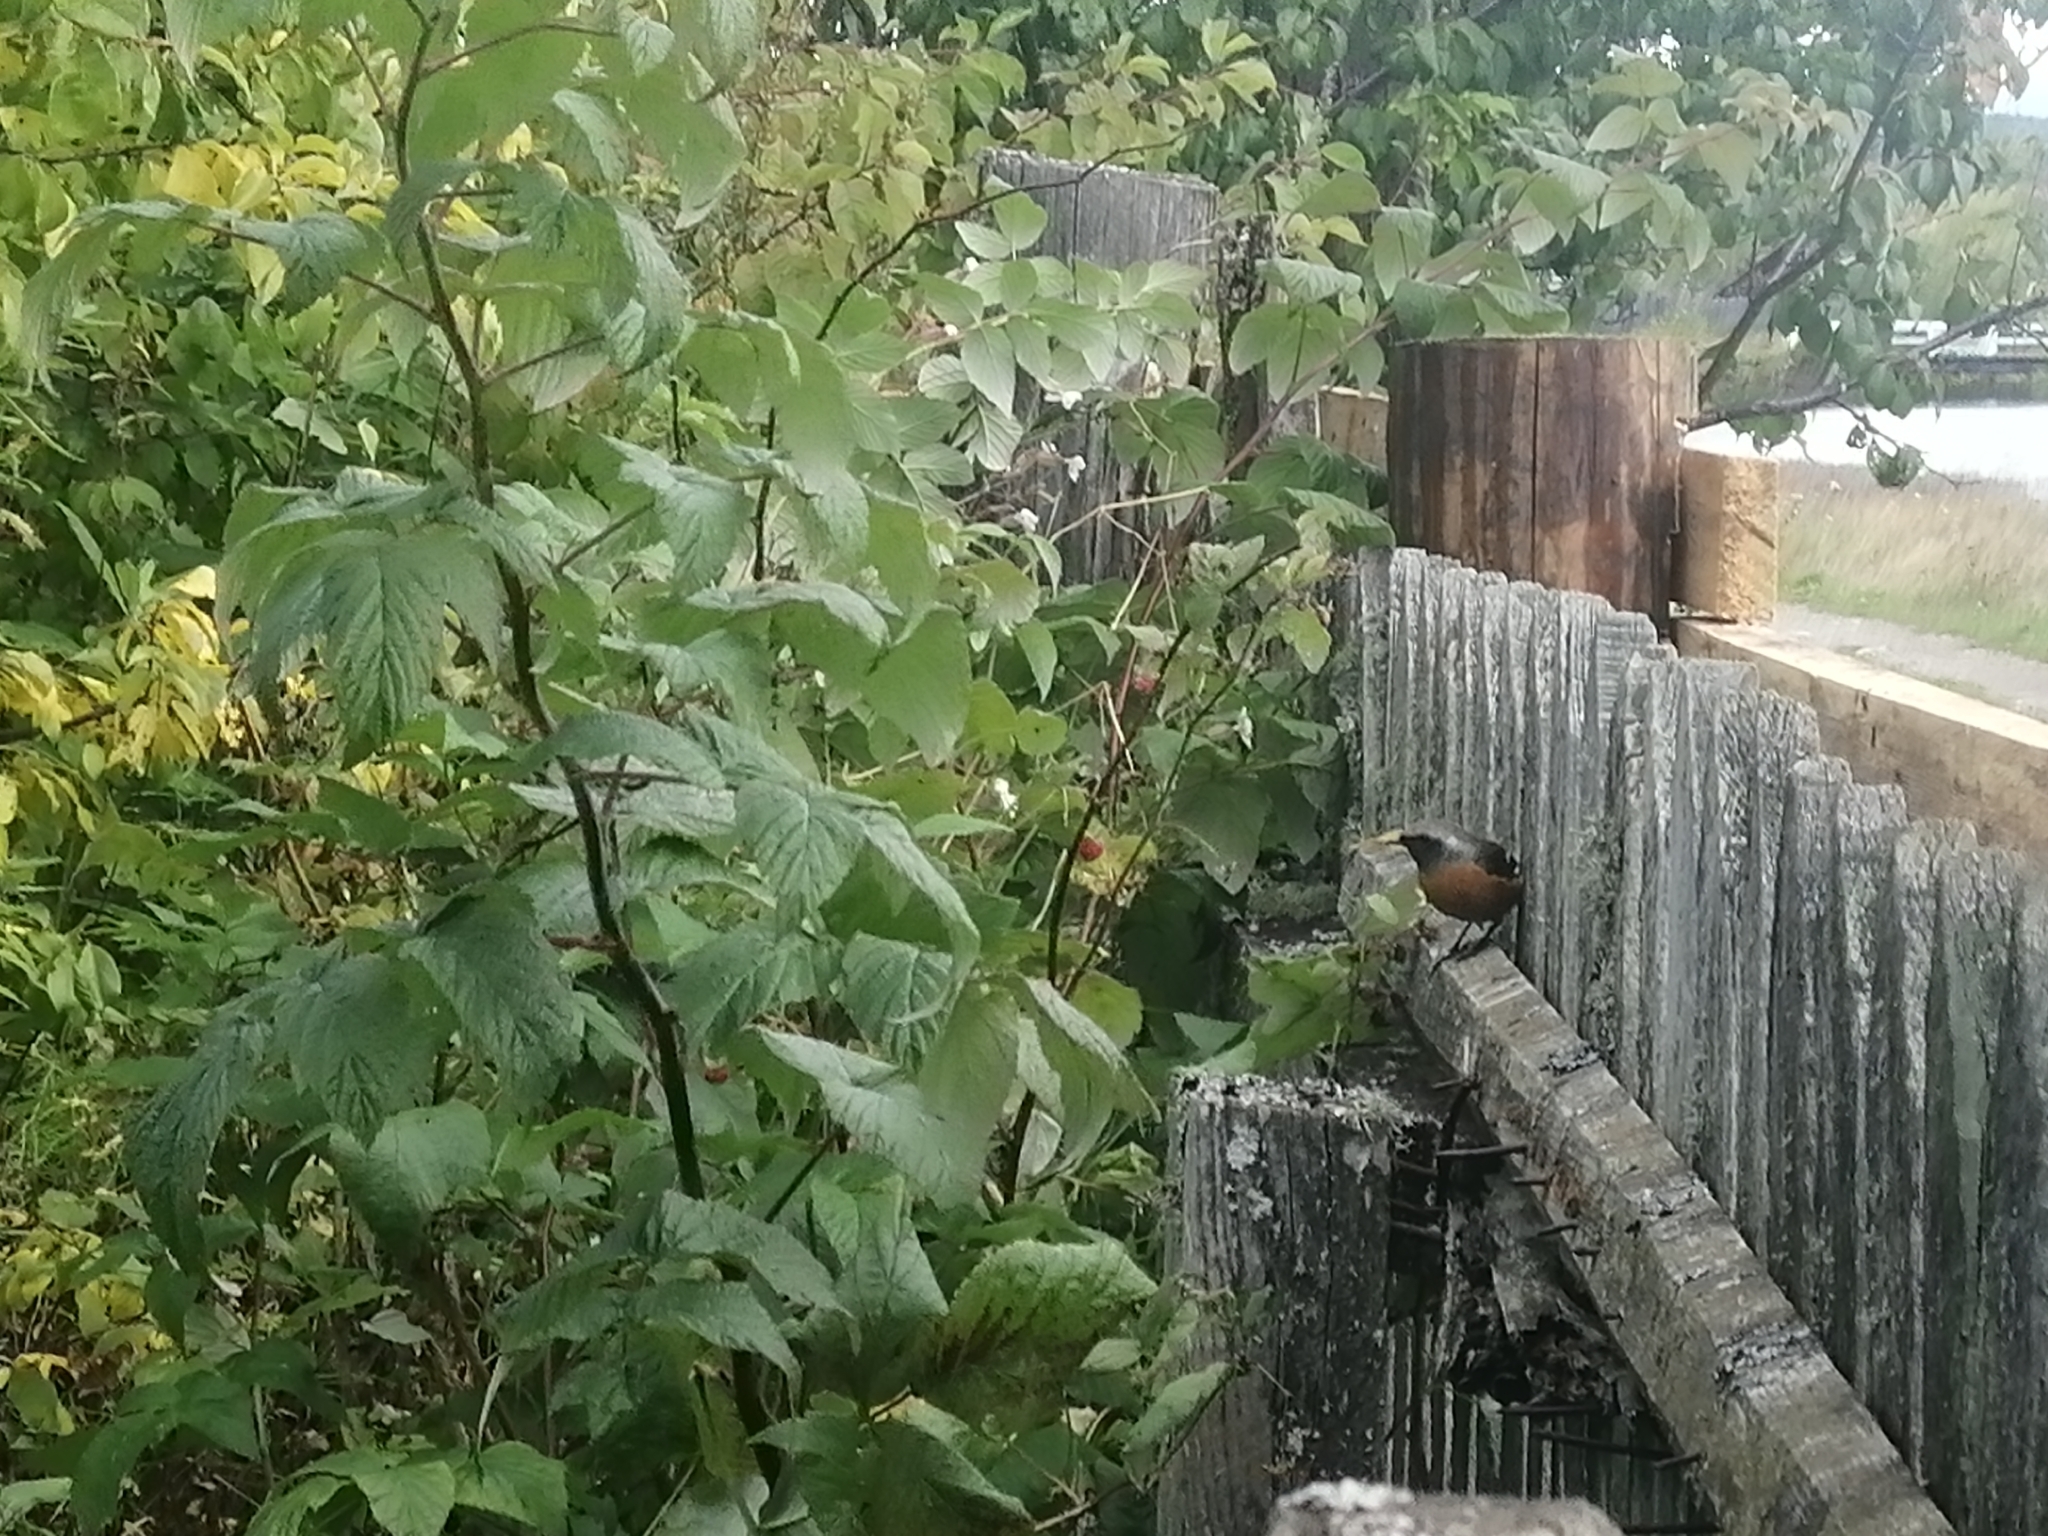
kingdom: Animalia
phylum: Chordata
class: Aves
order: Passeriformes
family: Muscicapidae
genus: Phoenicurus
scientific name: Phoenicurus auroreus
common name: Daurian redstart
